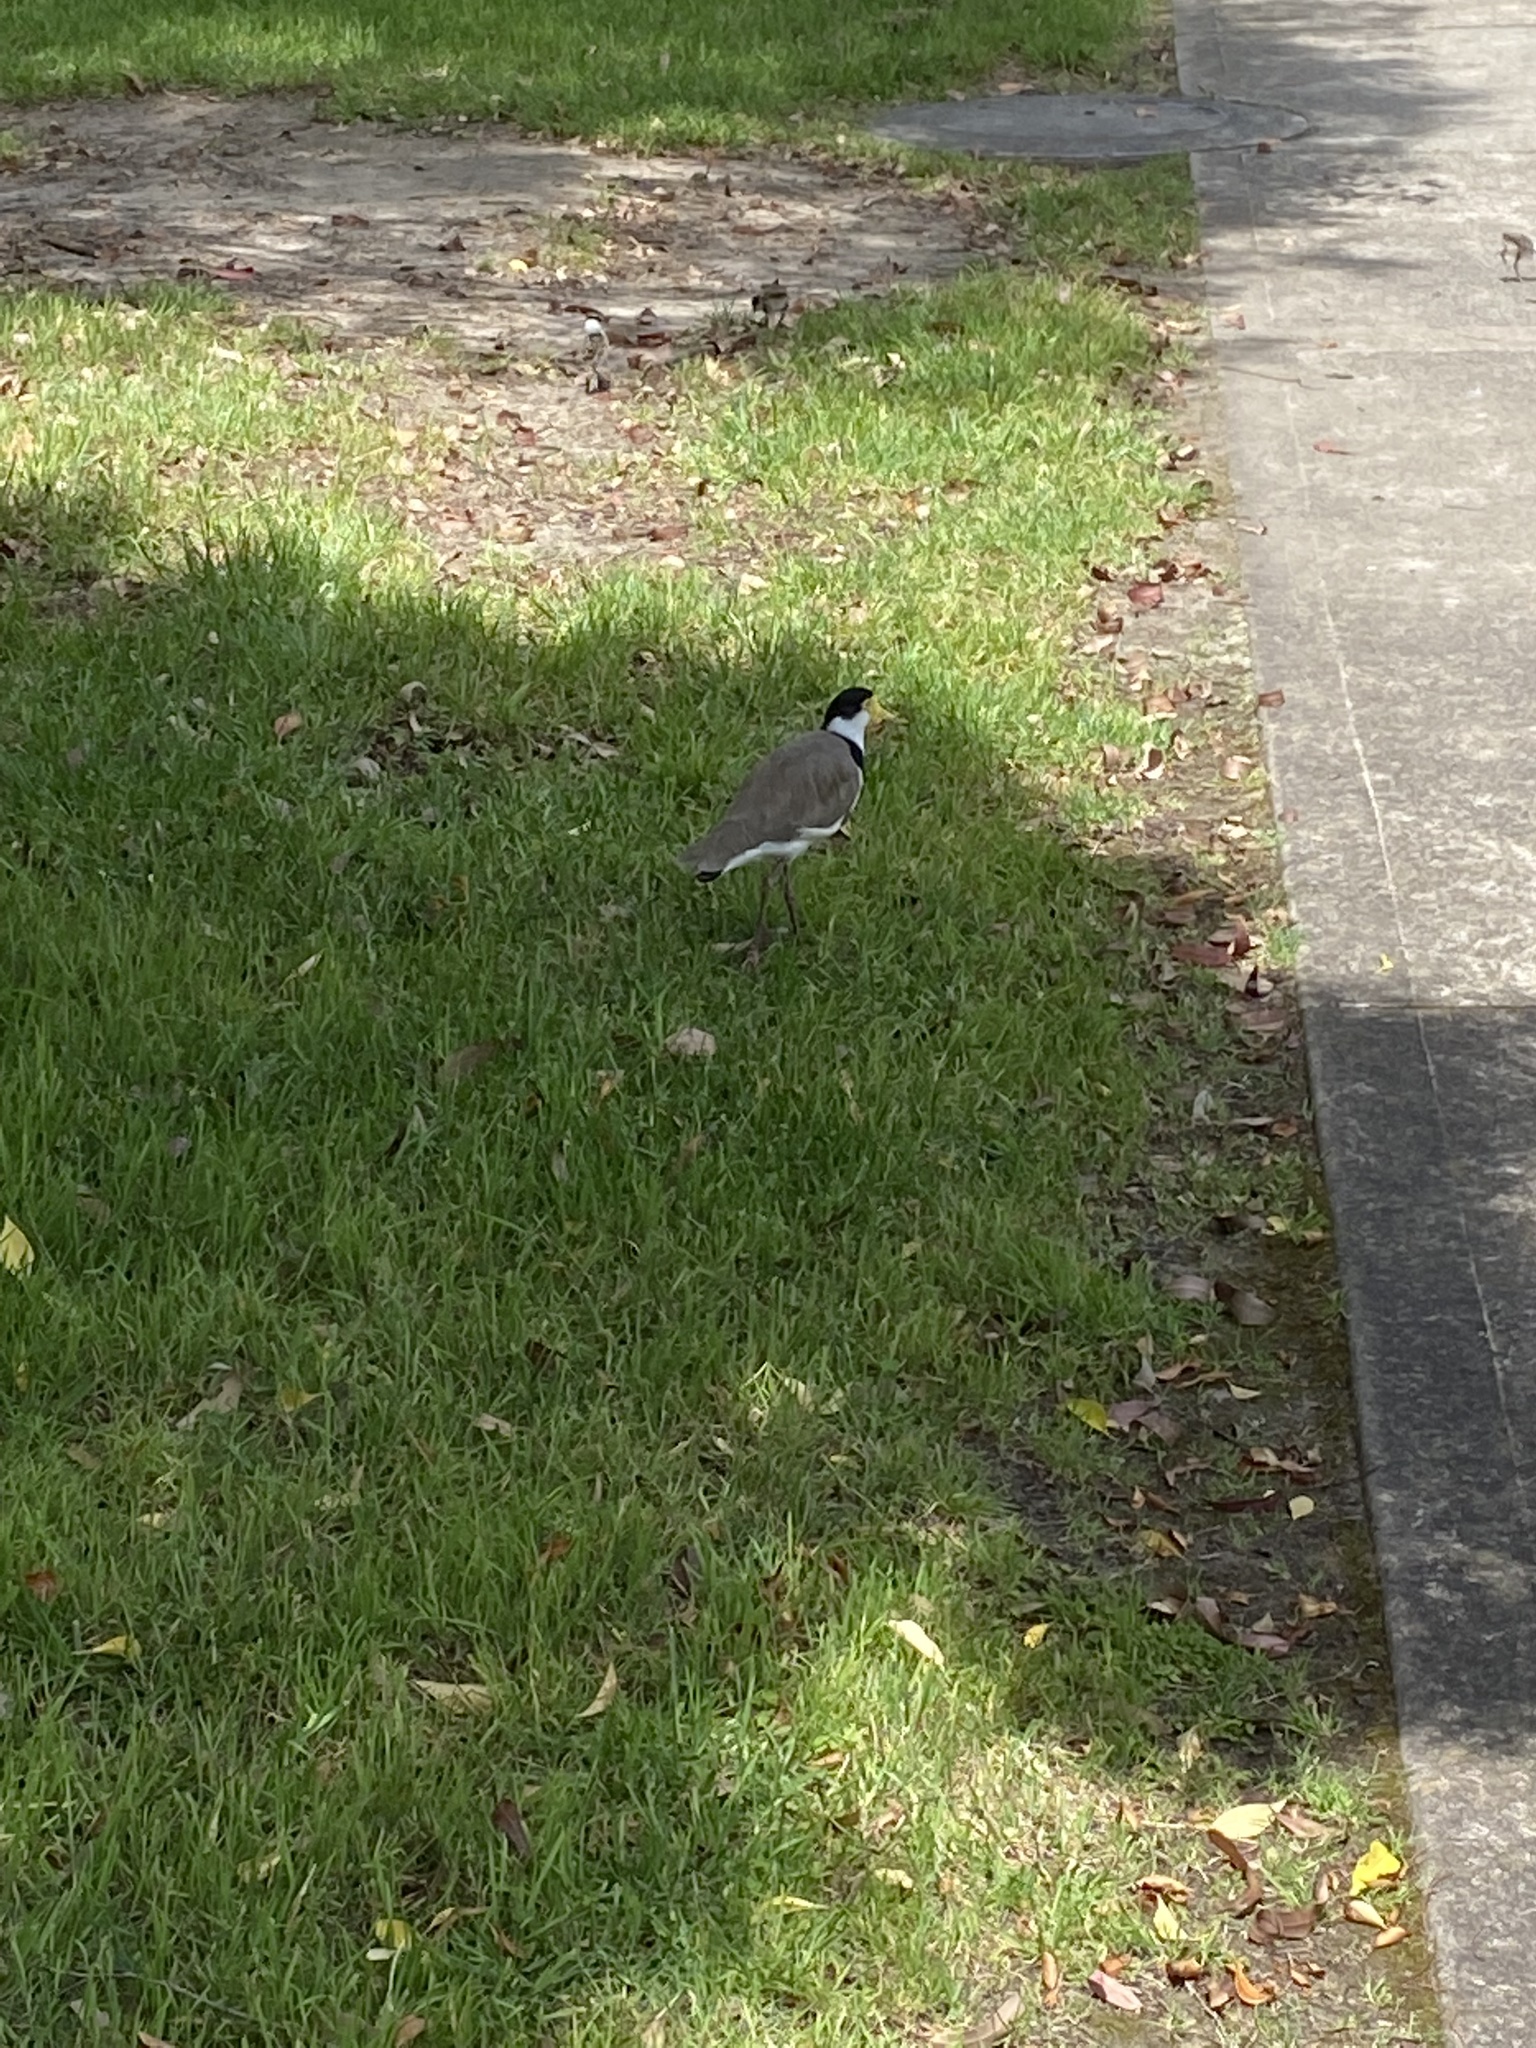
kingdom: Animalia
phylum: Chordata
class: Aves
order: Charadriiformes
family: Charadriidae
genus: Vanellus
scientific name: Vanellus miles
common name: Masked lapwing
